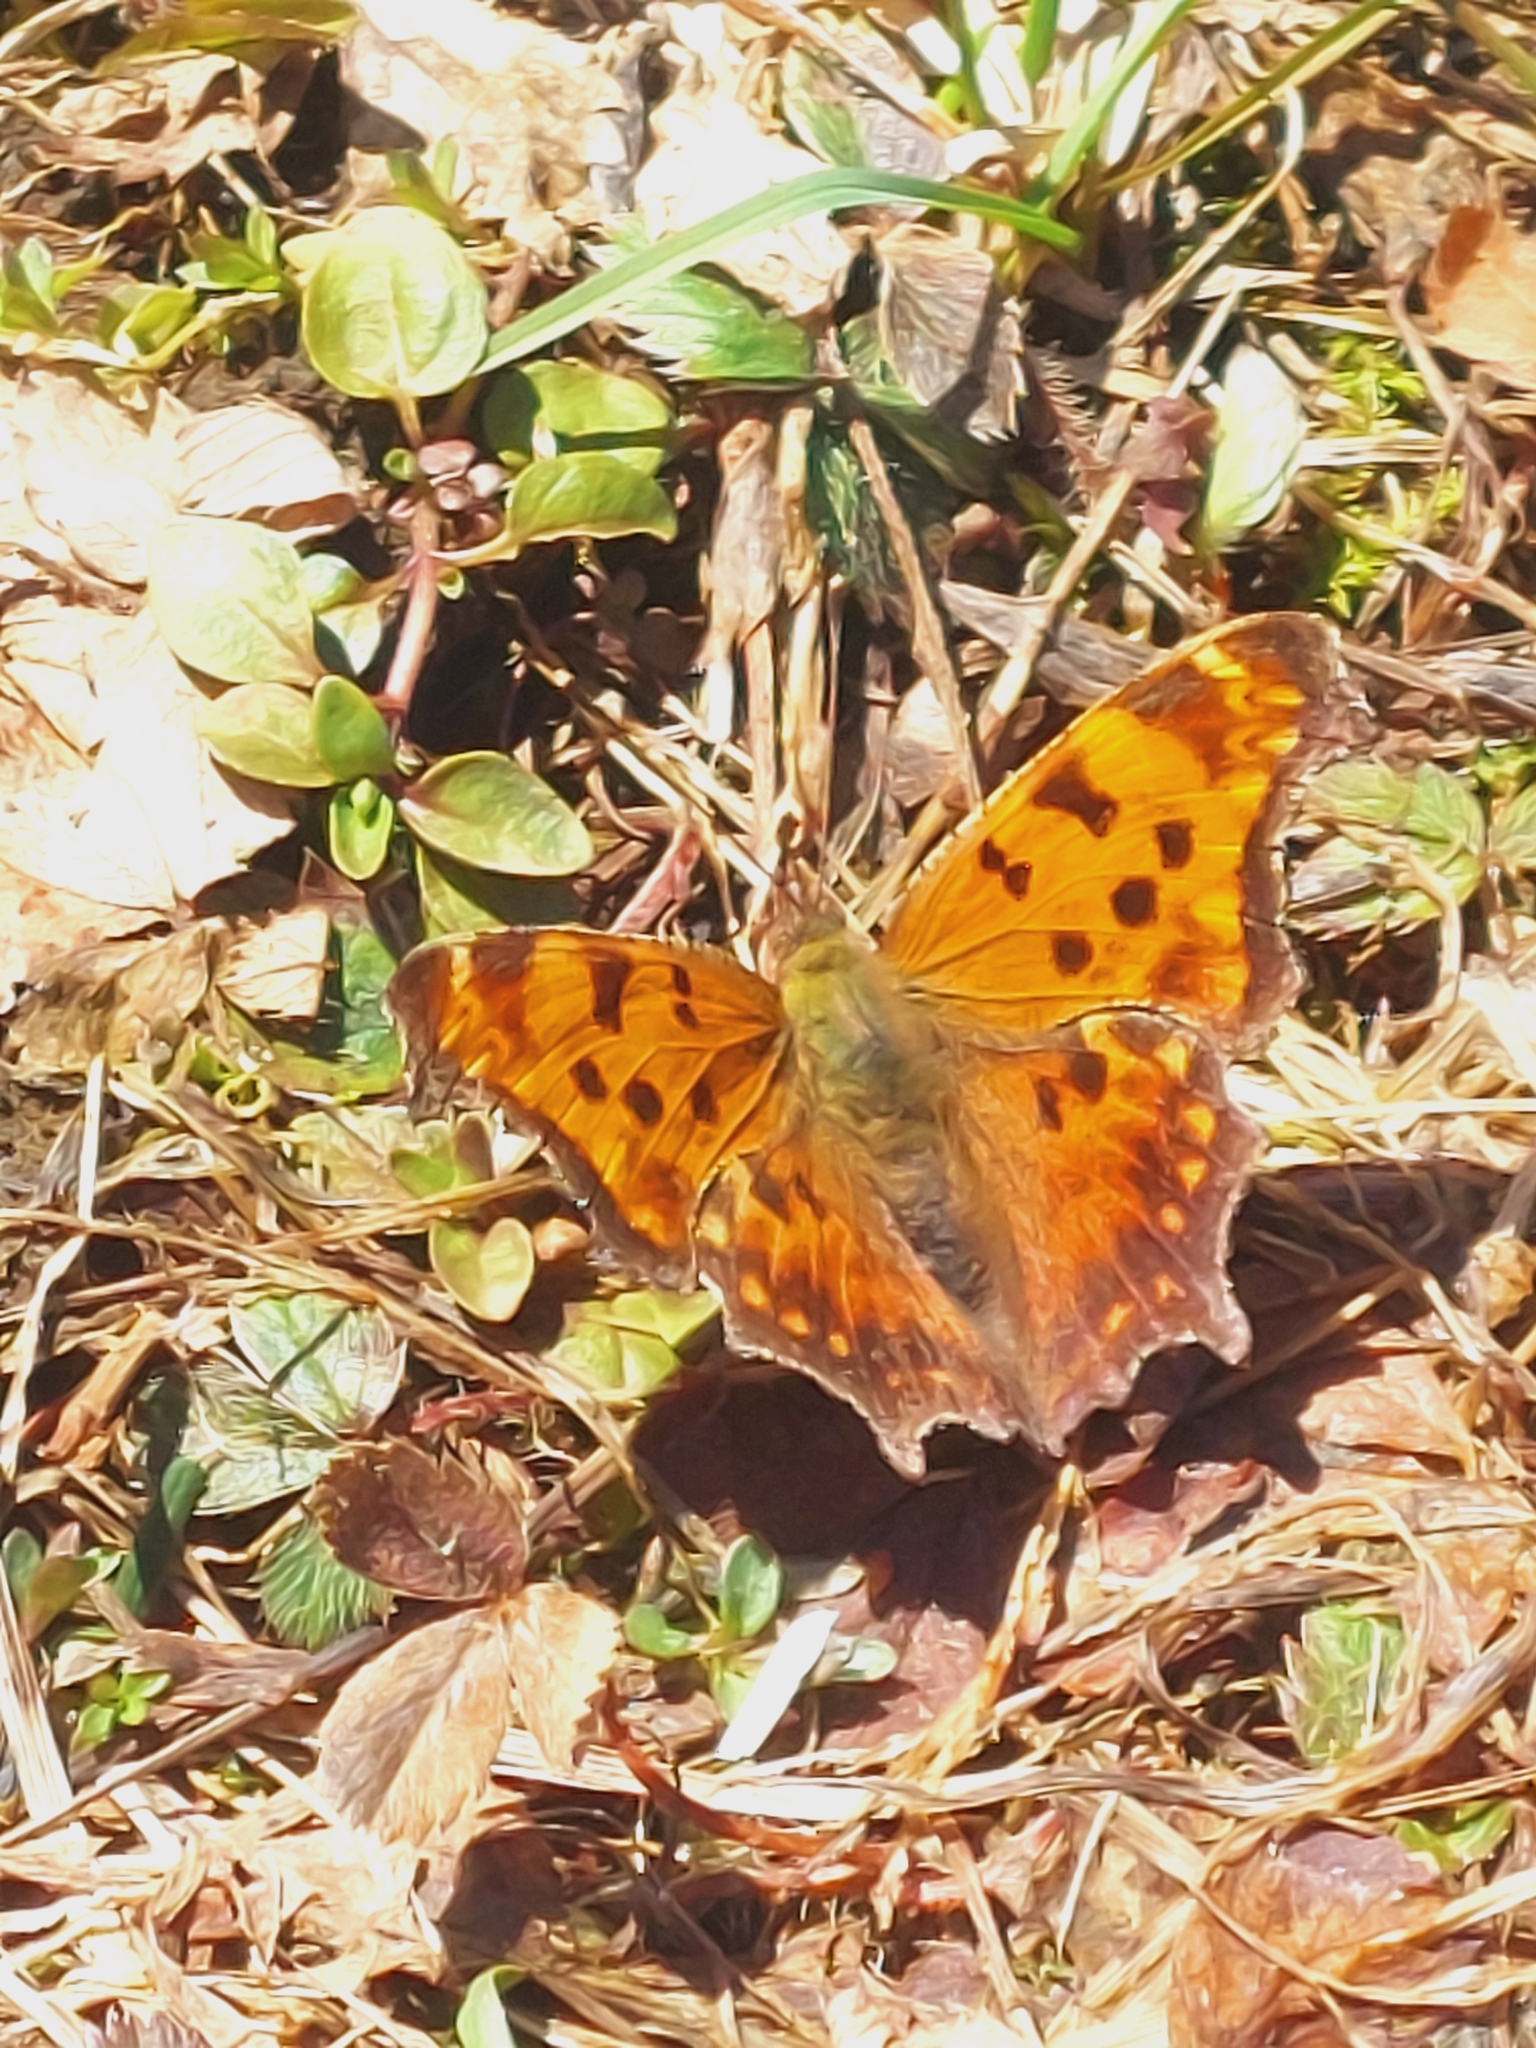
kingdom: Animalia
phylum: Arthropoda
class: Insecta
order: Lepidoptera
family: Nymphalidae
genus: Polygonia
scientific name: Polygonia comma
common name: Eastern comma
